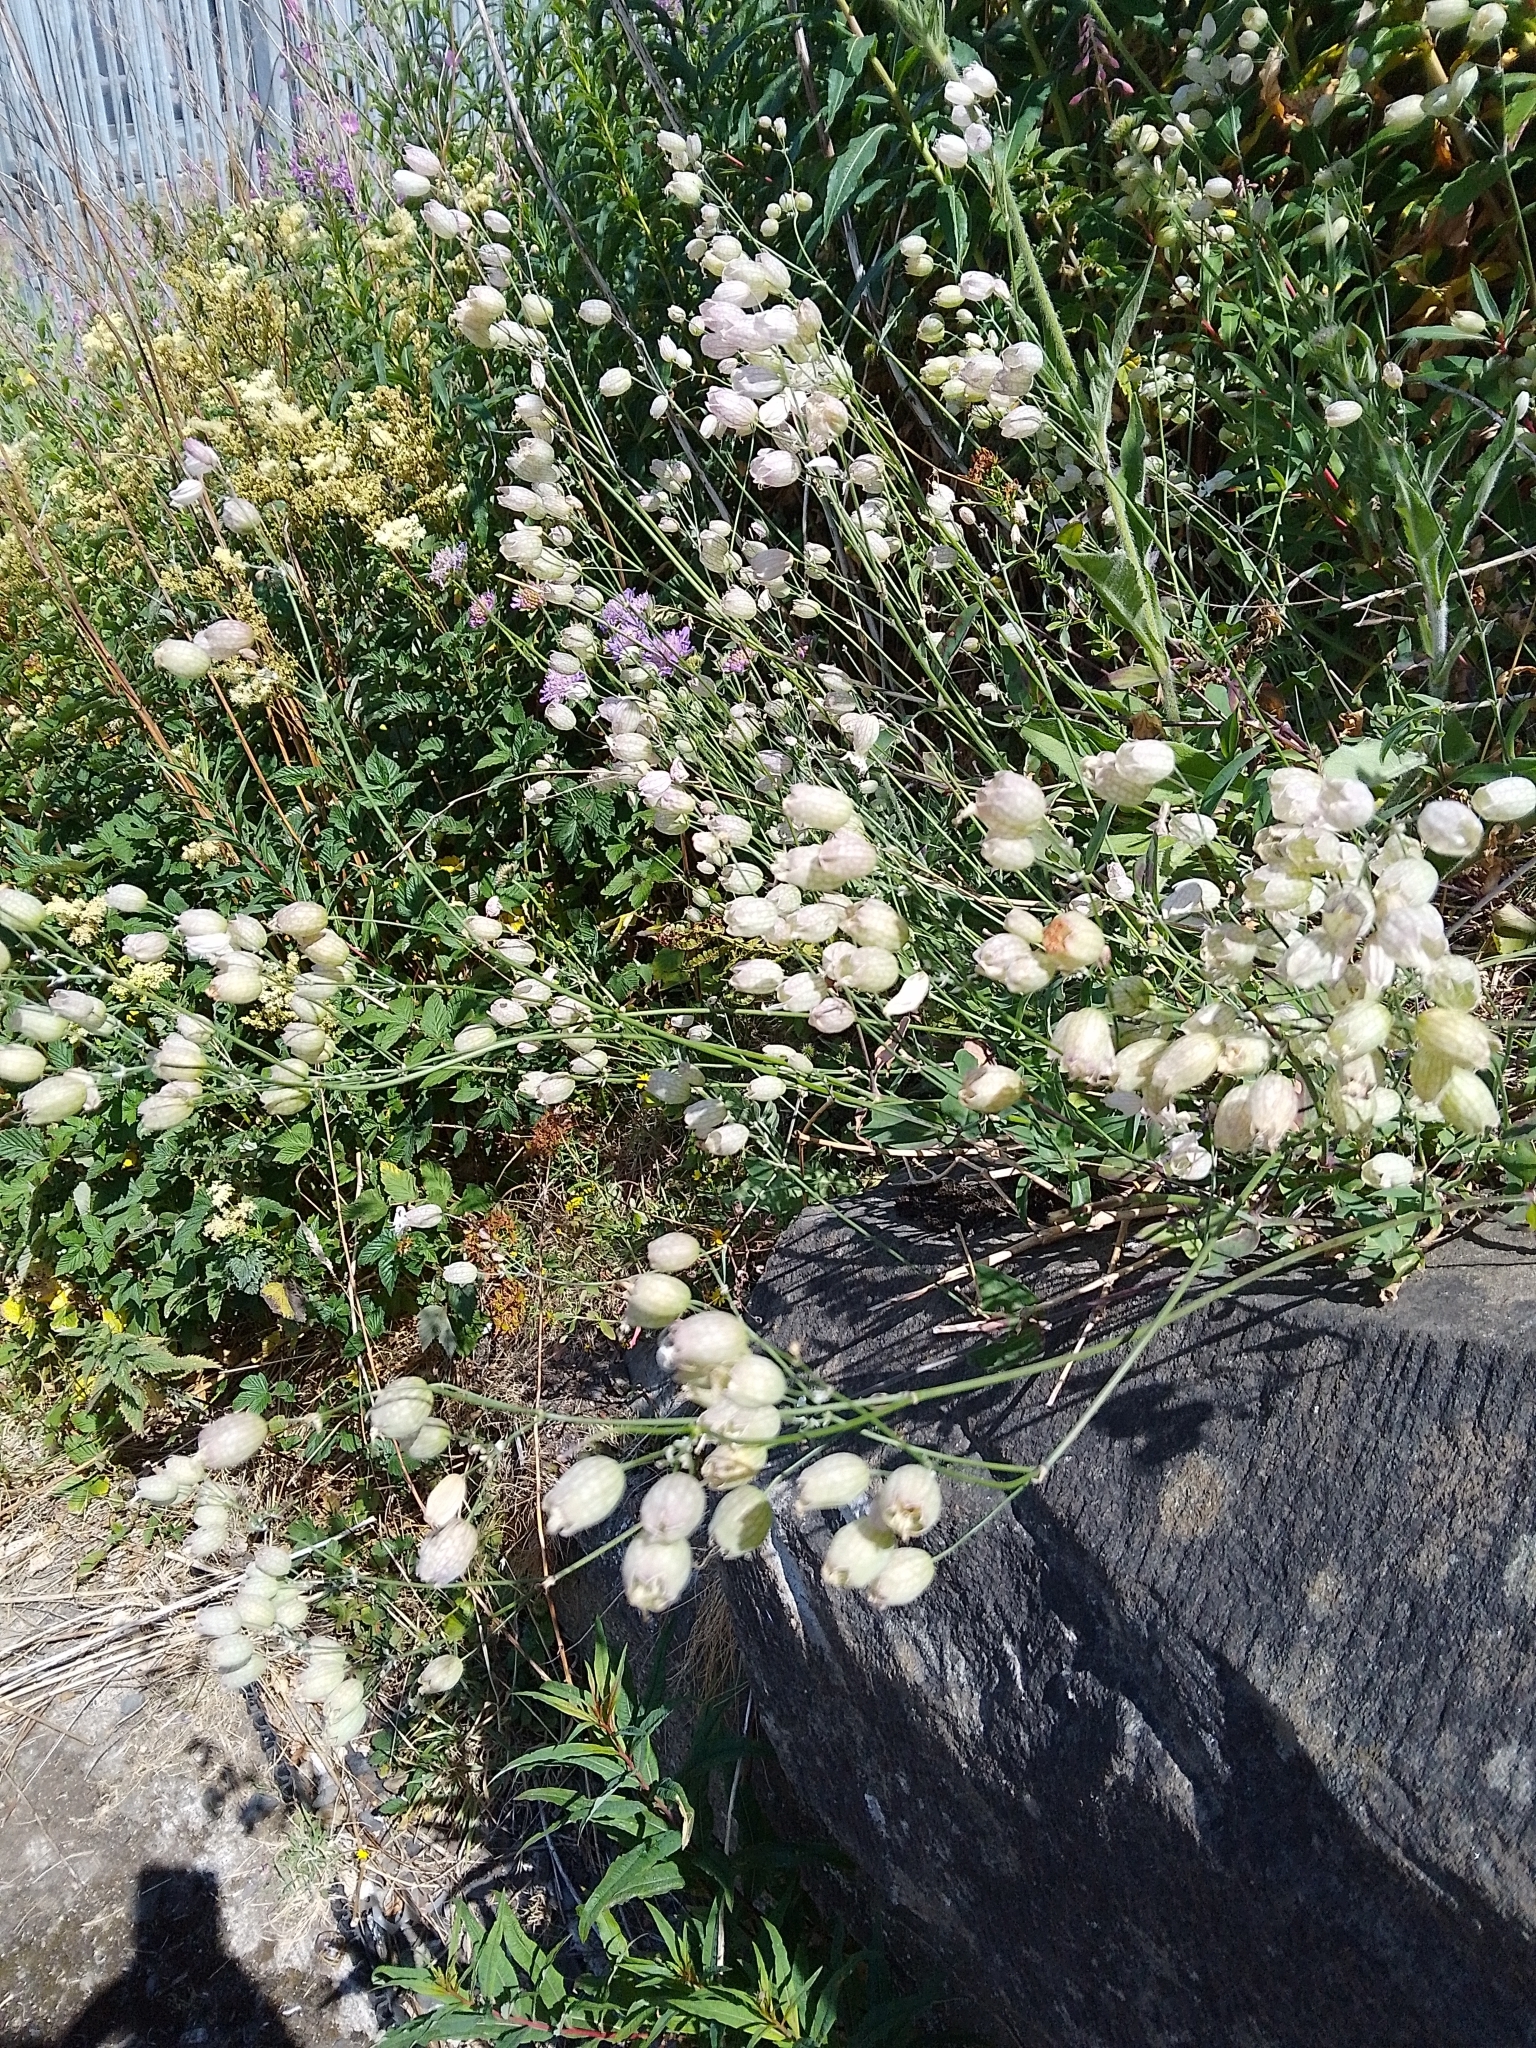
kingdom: Plantae
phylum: Tracheophyta
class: Magnoliopsida
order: Caryophyllales
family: Caryophyllaceae
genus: Silene
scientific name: Silene vulgaris
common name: Bladder campion
